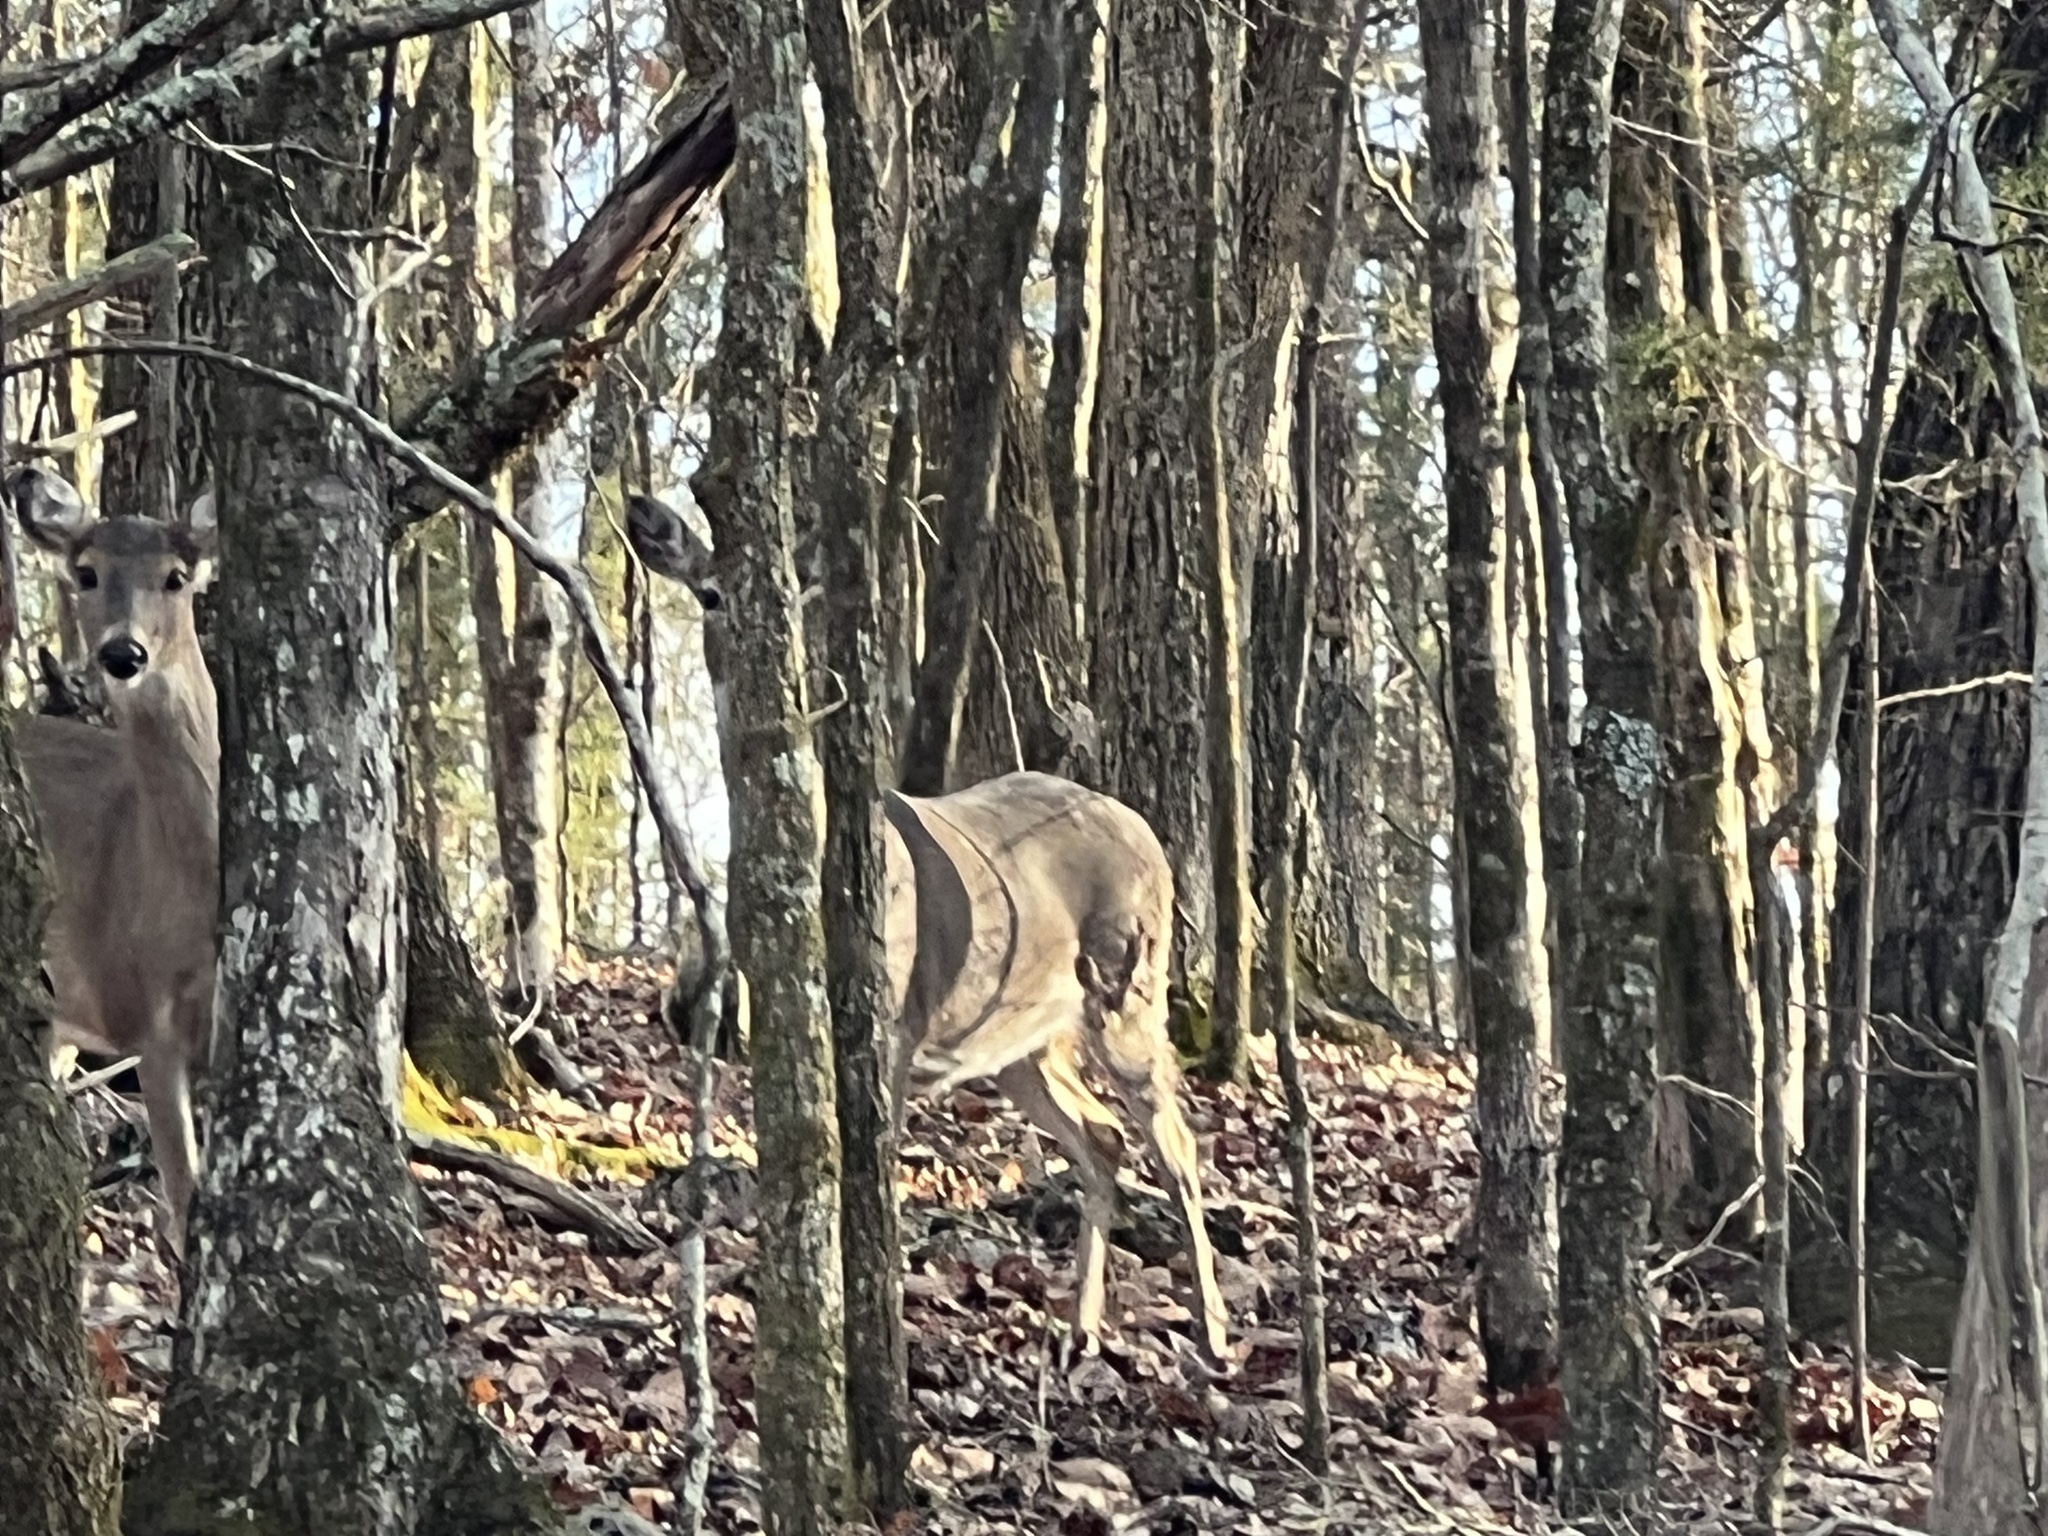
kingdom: Animalia
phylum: Chordata
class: Mammalia
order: Artiodactyla
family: Cervidae
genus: Odocoileus
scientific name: Odocoileus virginianus
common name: White-tailed deer
